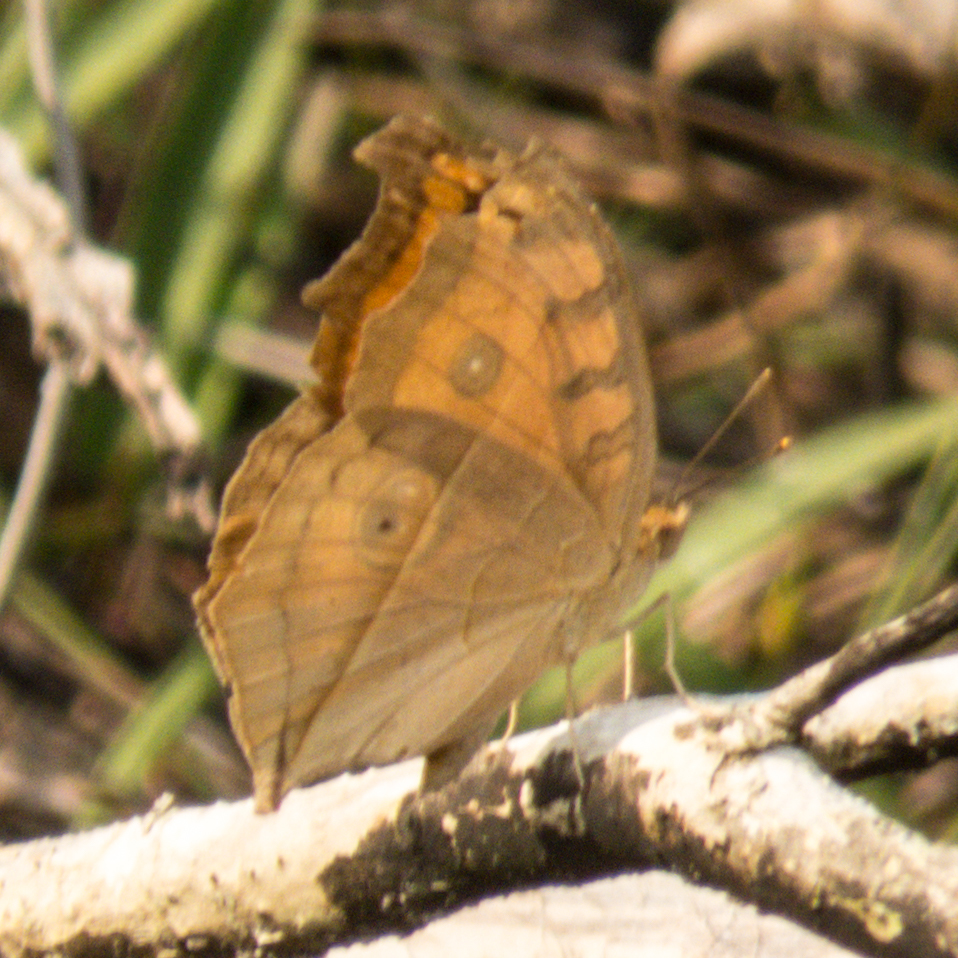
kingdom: Animalia
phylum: Arthropoda
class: Insecta
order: Lepidoptera
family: Nymphalidae
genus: Junonia
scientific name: Junonia almana
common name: Peacock pansy
